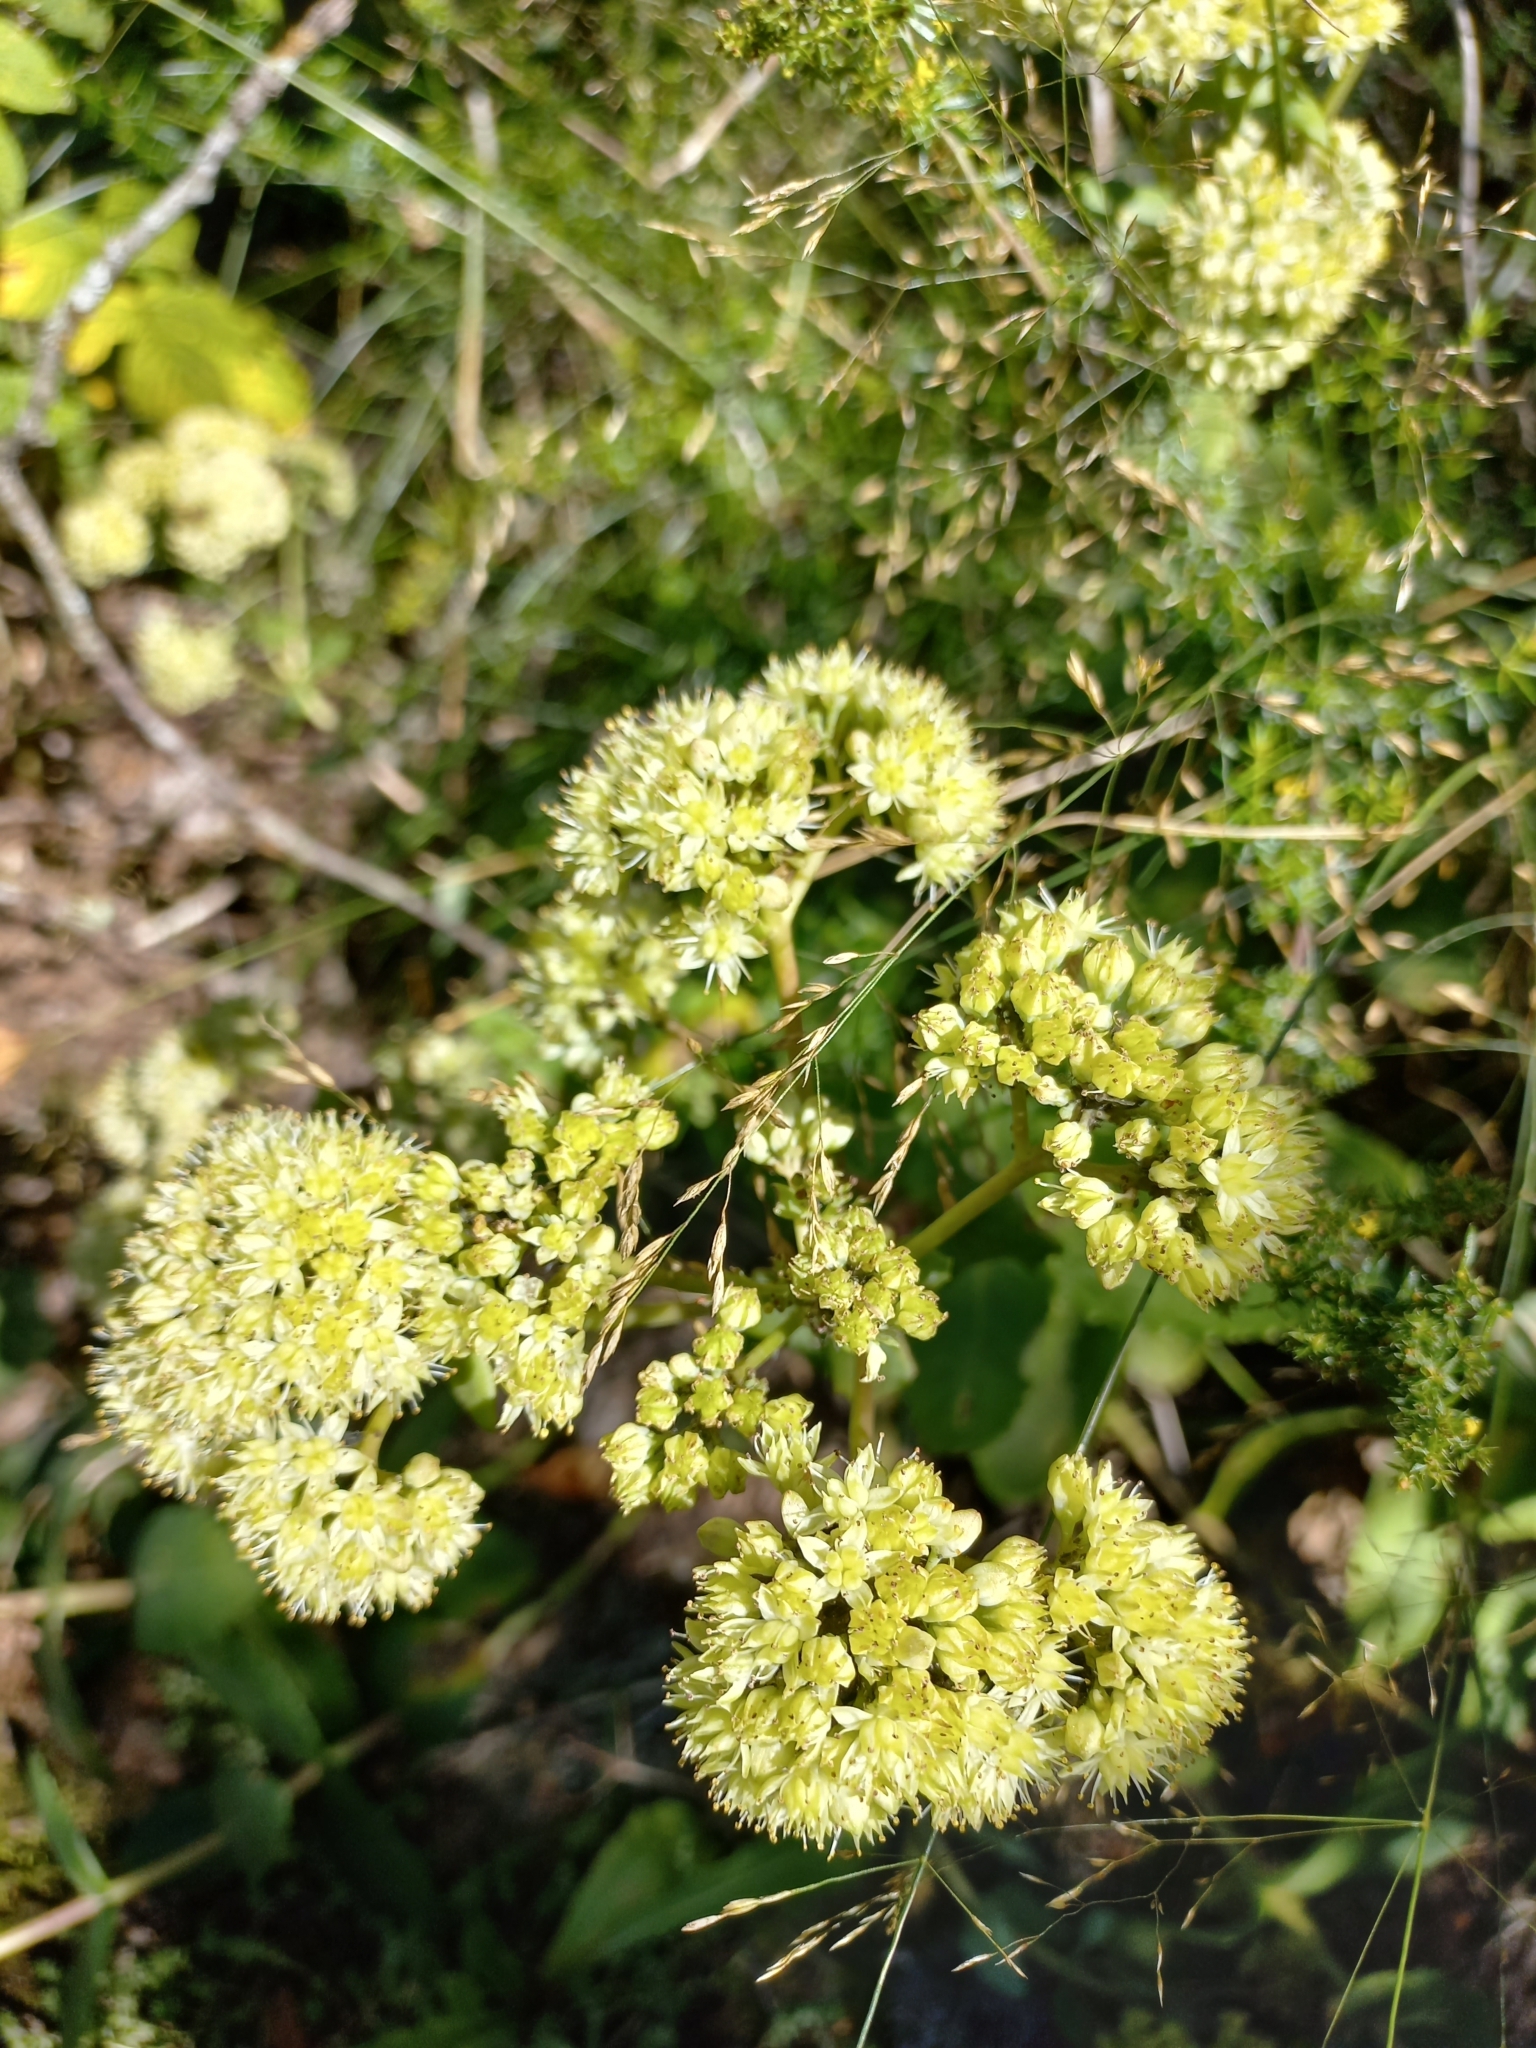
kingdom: Plantae
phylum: Tracheophyta
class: Magnoliopsida
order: Saxifragales
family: Crassulaceae
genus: Hylotelephium
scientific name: Hylotelephium maximum
